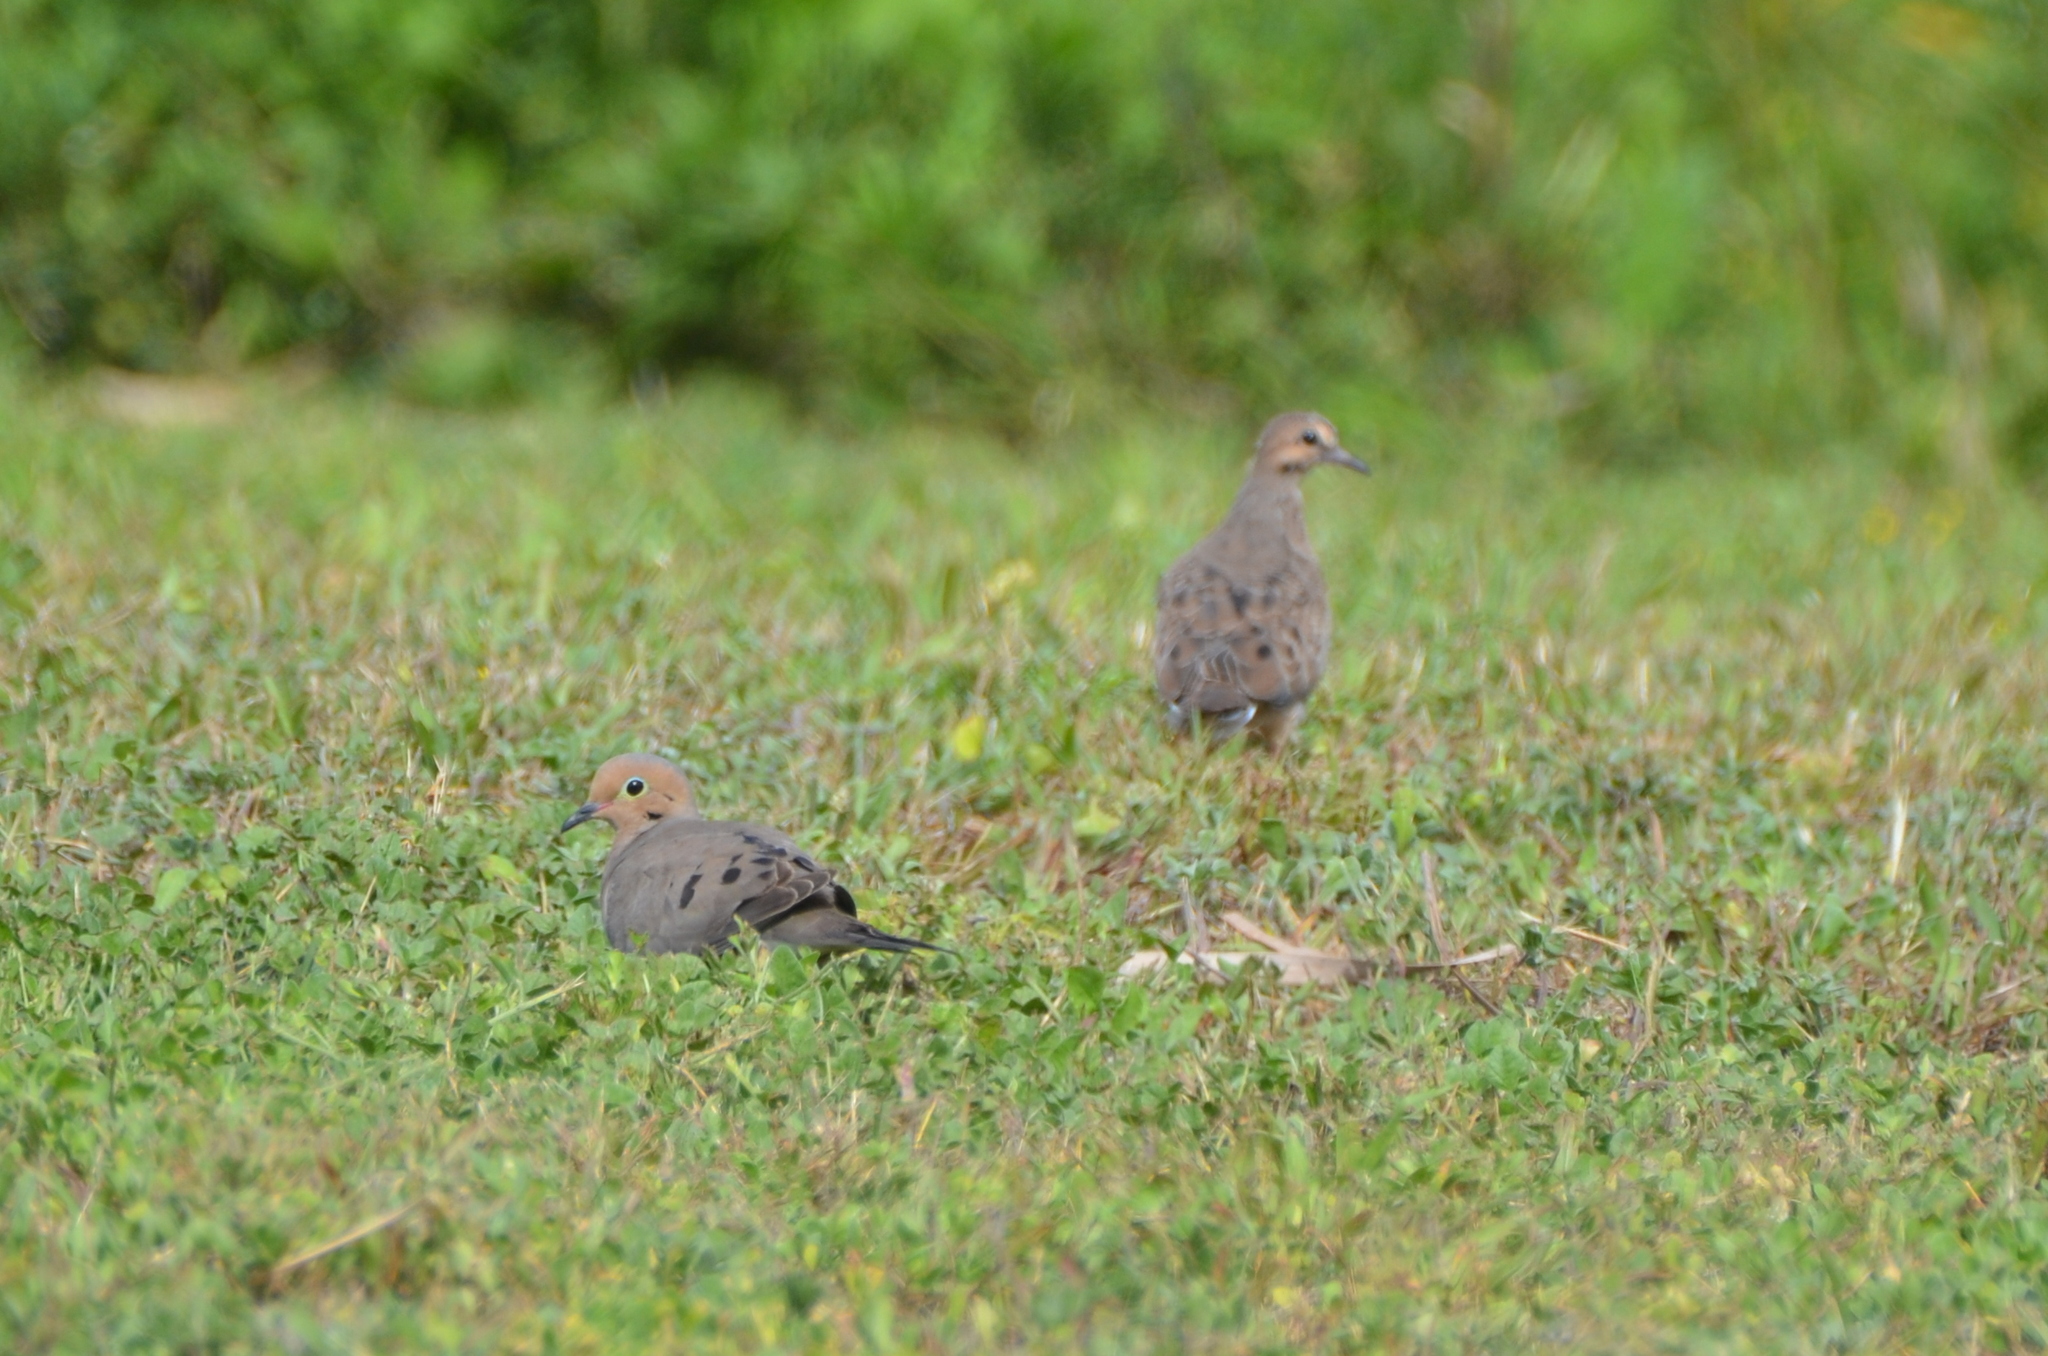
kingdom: Animalia
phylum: Chordata
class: Aves
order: Columbiformes
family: Columbidae
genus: Zenaida
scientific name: Zenaida macroura
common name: Mourning dove
